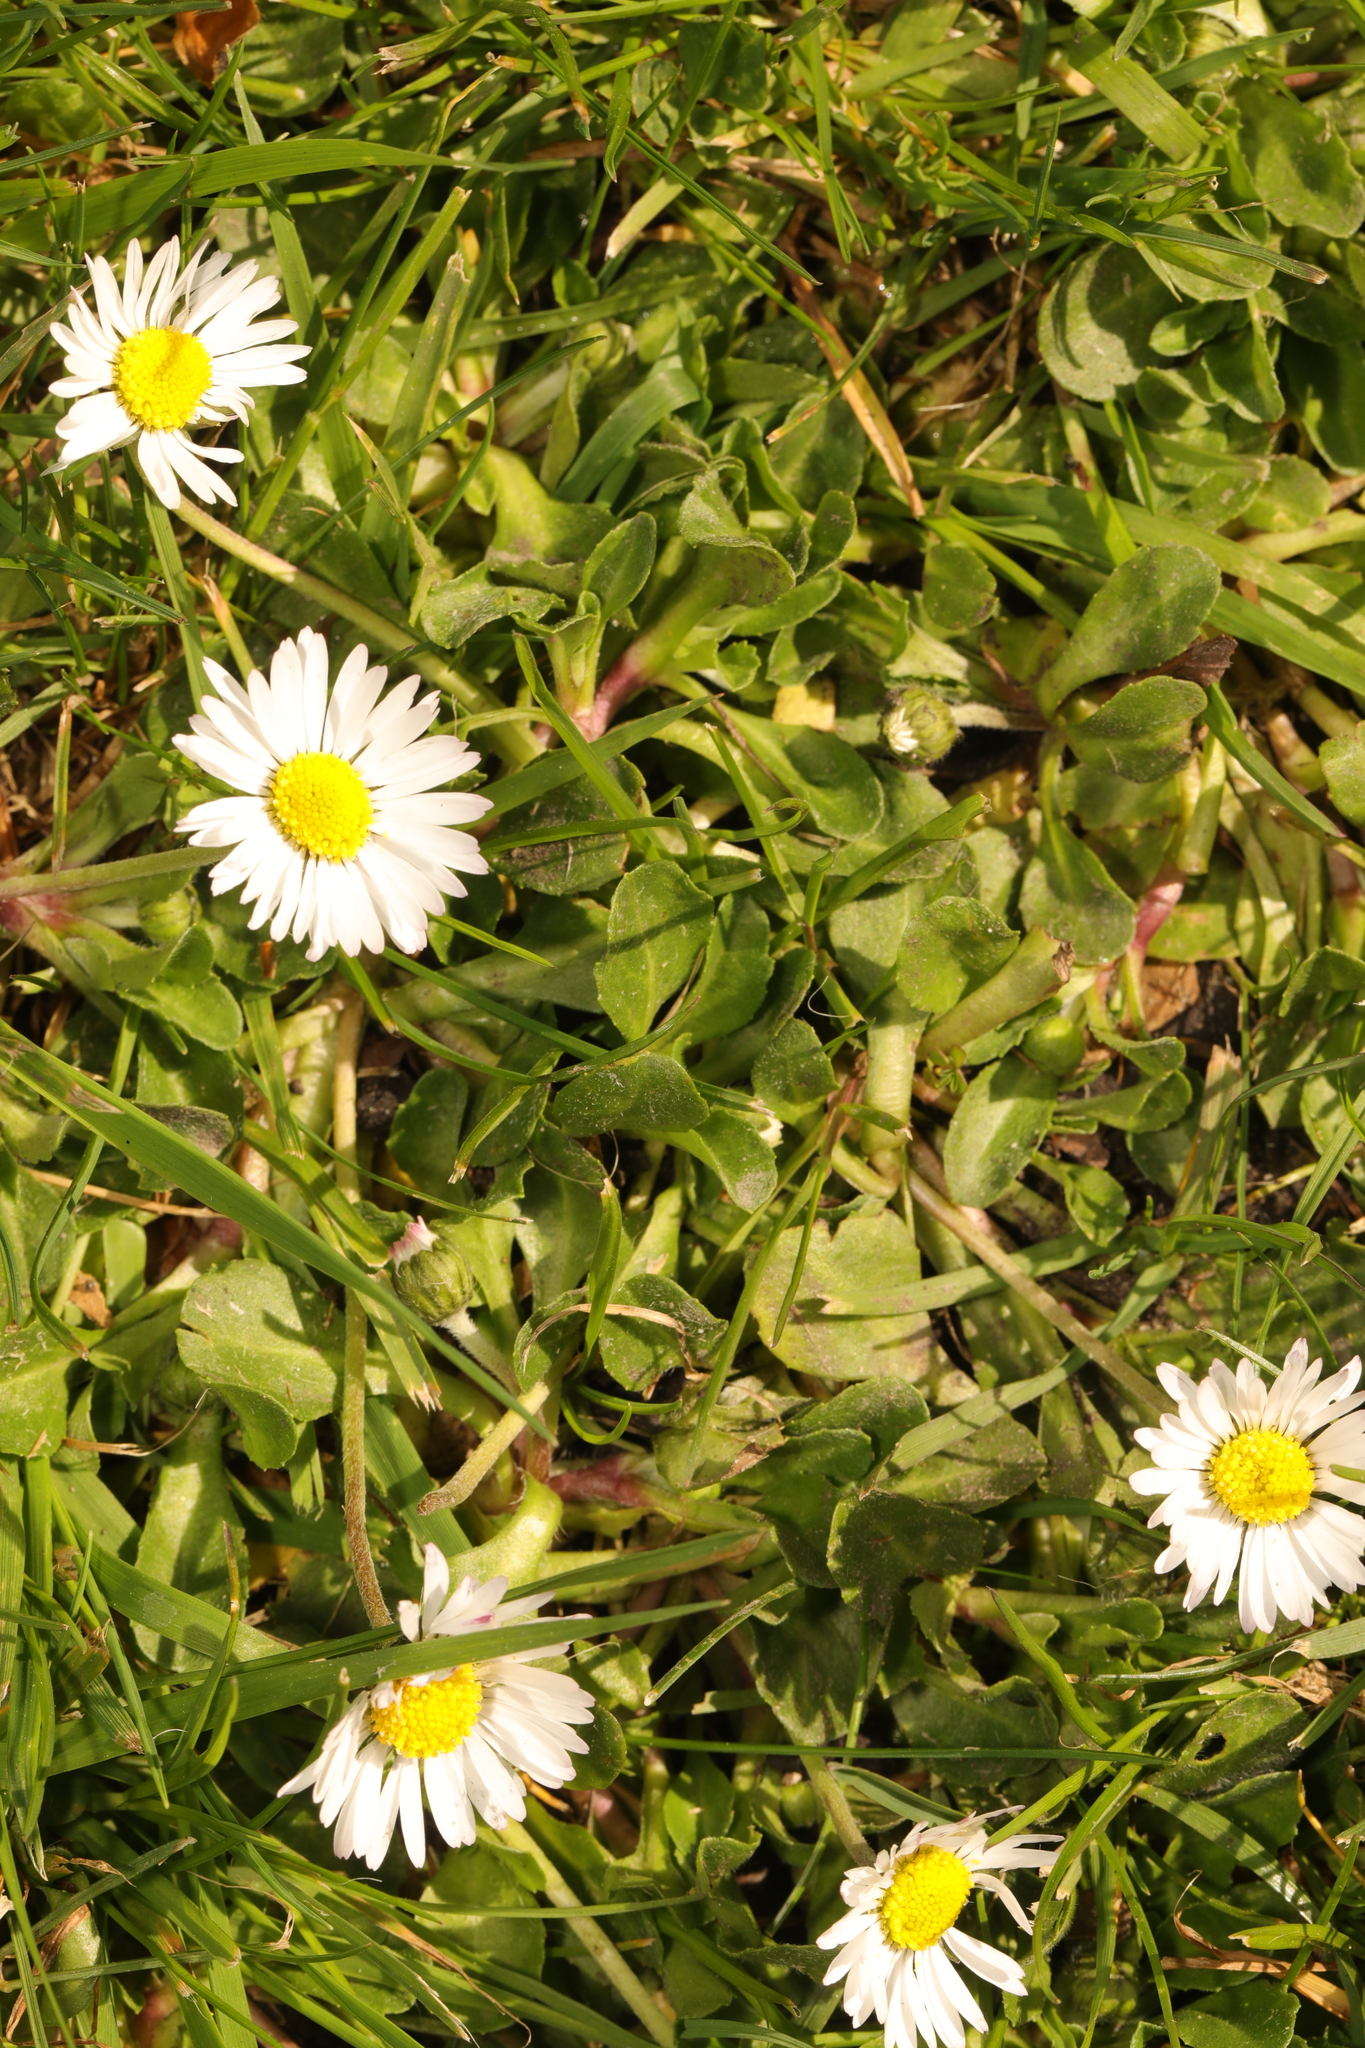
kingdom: Plantae
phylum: Tracheophyta
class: Magnoliopsida
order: Asterales
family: Asteraceae
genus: Bellis
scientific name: Bellis perennis
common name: Lawndaisy
